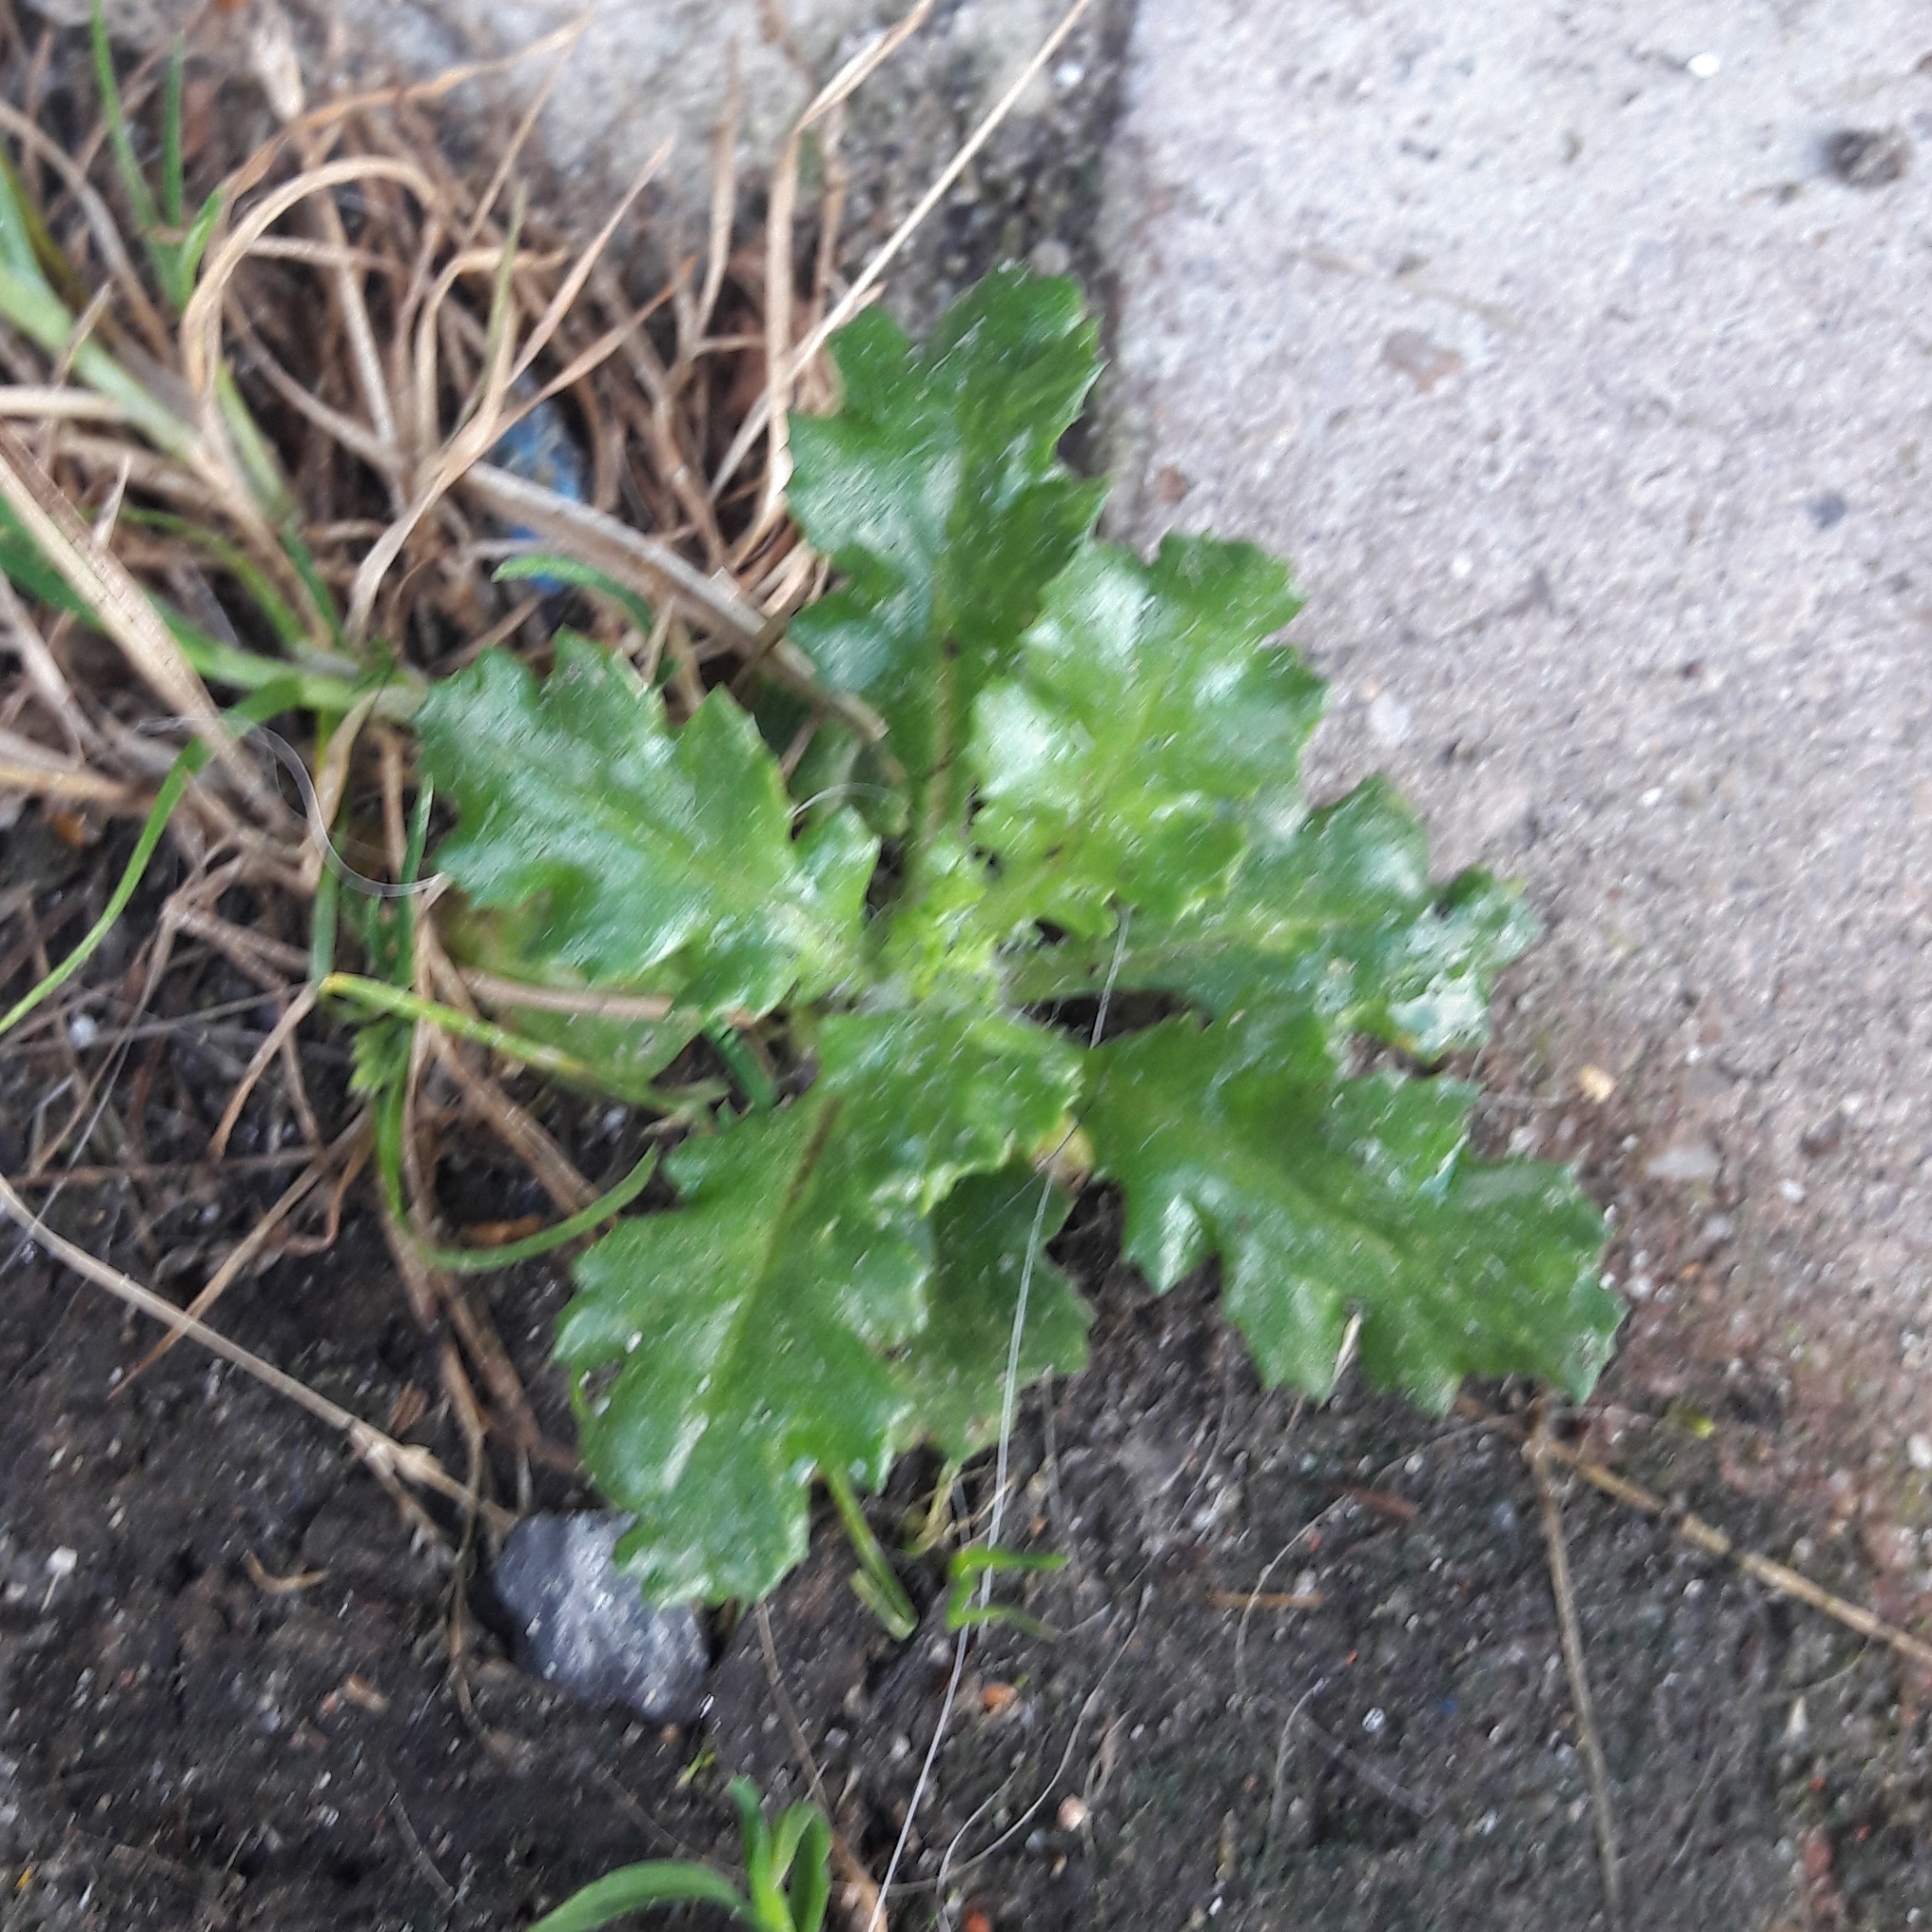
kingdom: Plantae
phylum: Tracheophyta
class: Magnoliopsida
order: Asterales
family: Asteraceae
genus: Senecio
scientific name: Senecio vulgaris
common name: Old-man-in-the-spring
